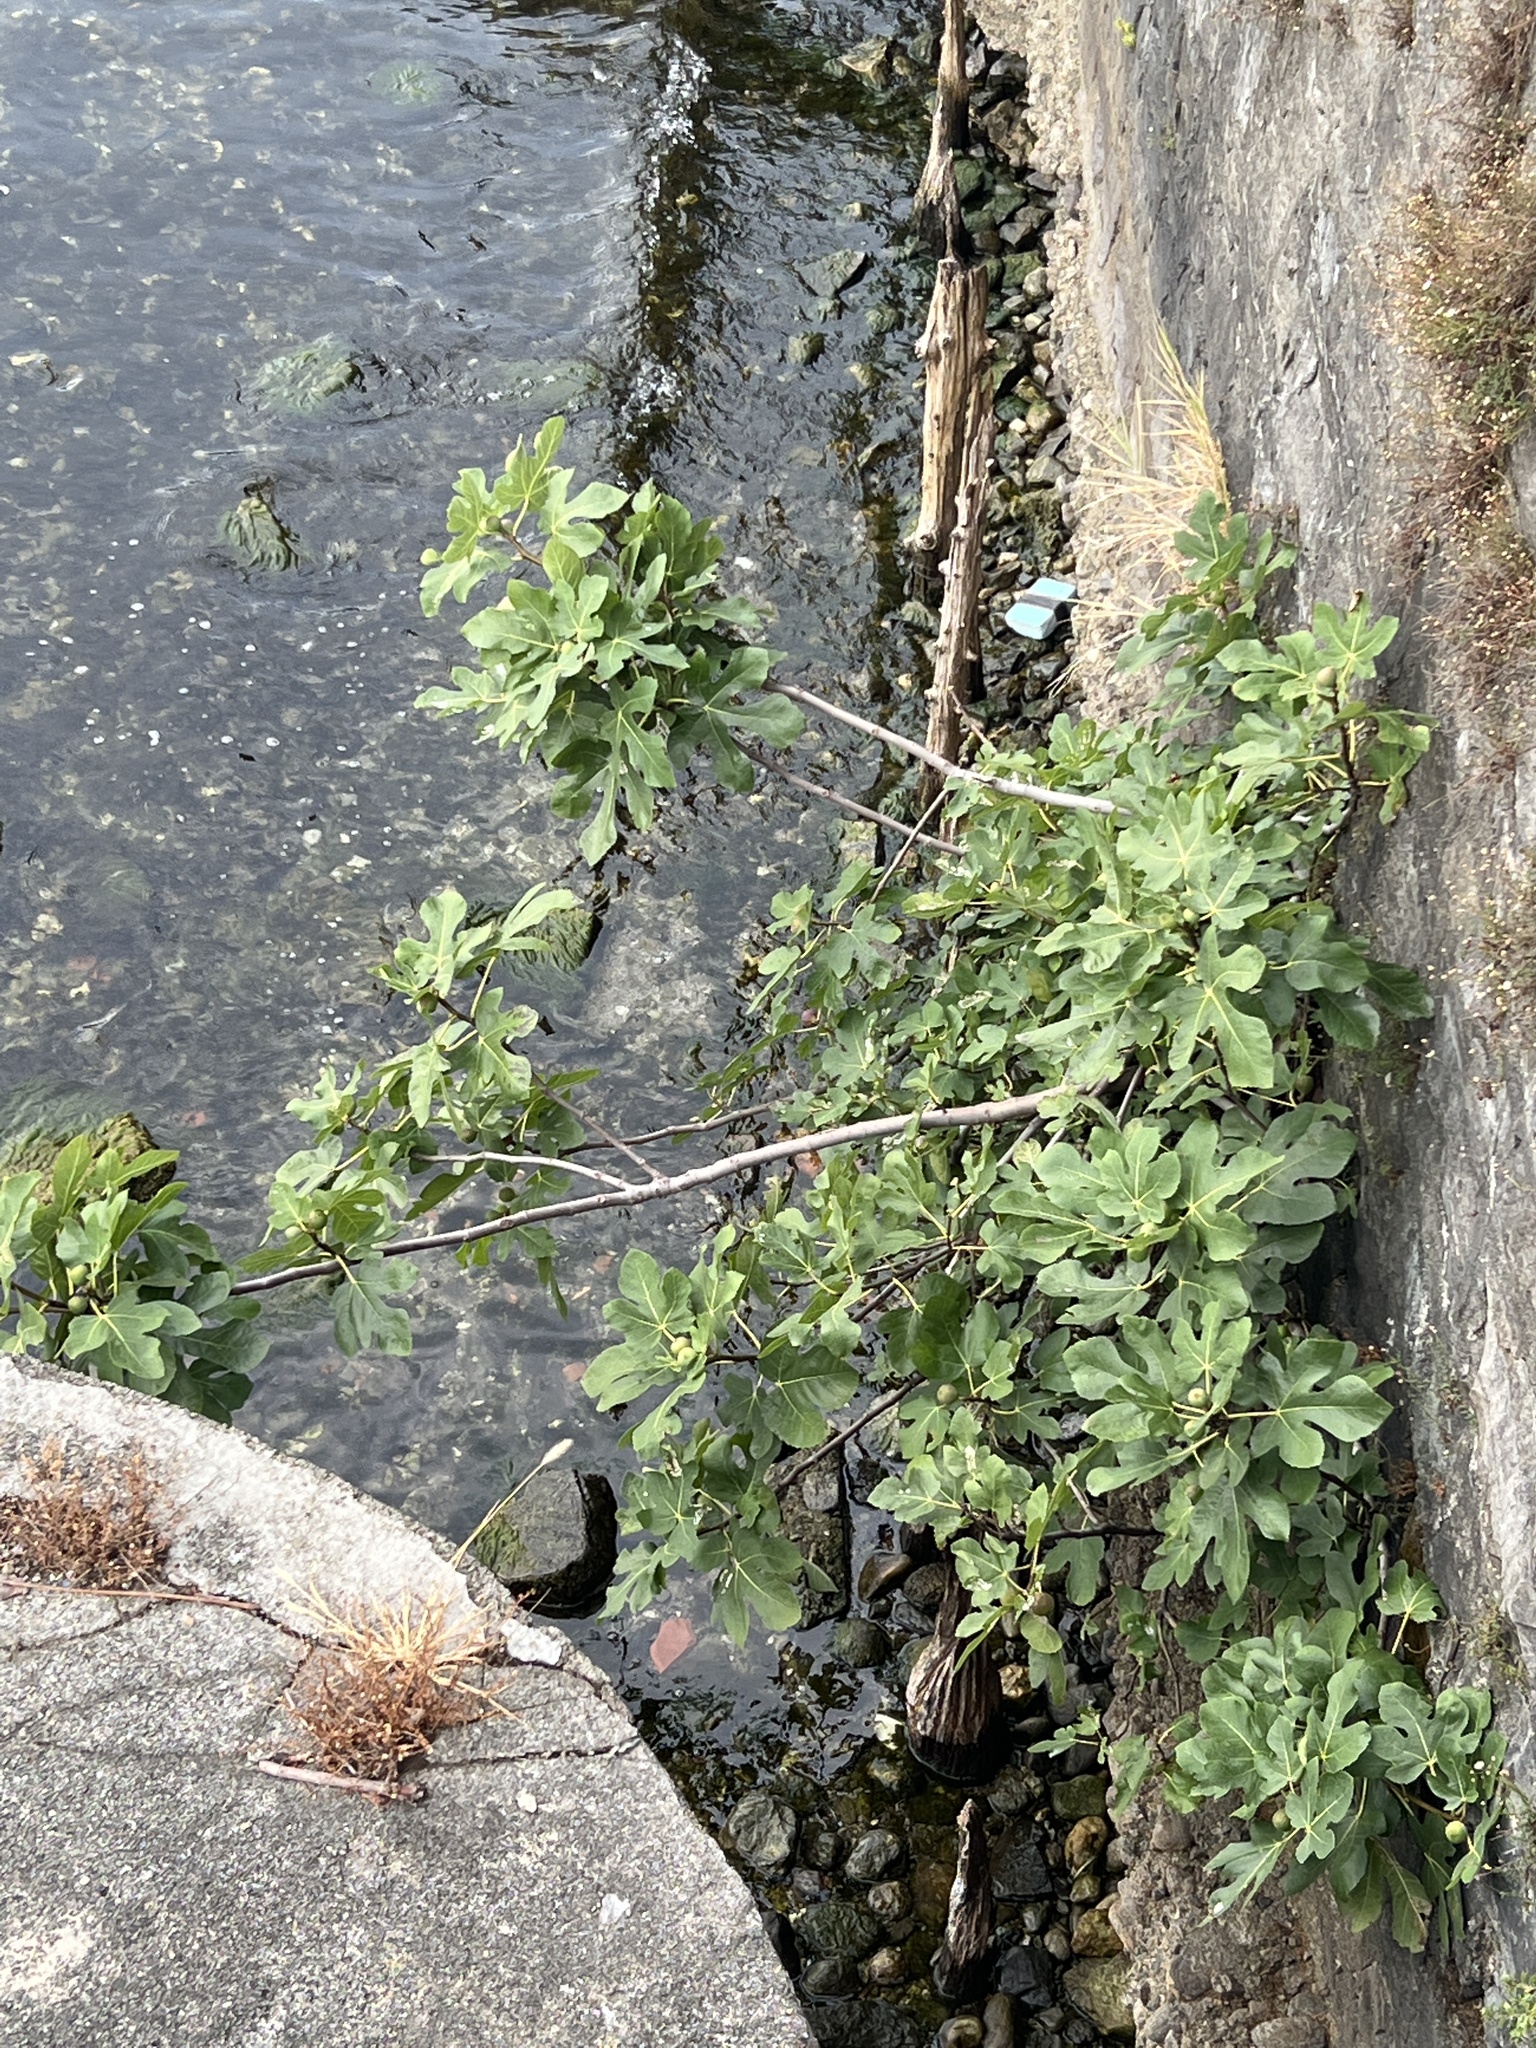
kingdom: Plantae
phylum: Tracheophyta
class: Magnoliopsida
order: Rosales
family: Moraceae
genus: Ficus
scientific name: Ficus carica
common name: Fig
